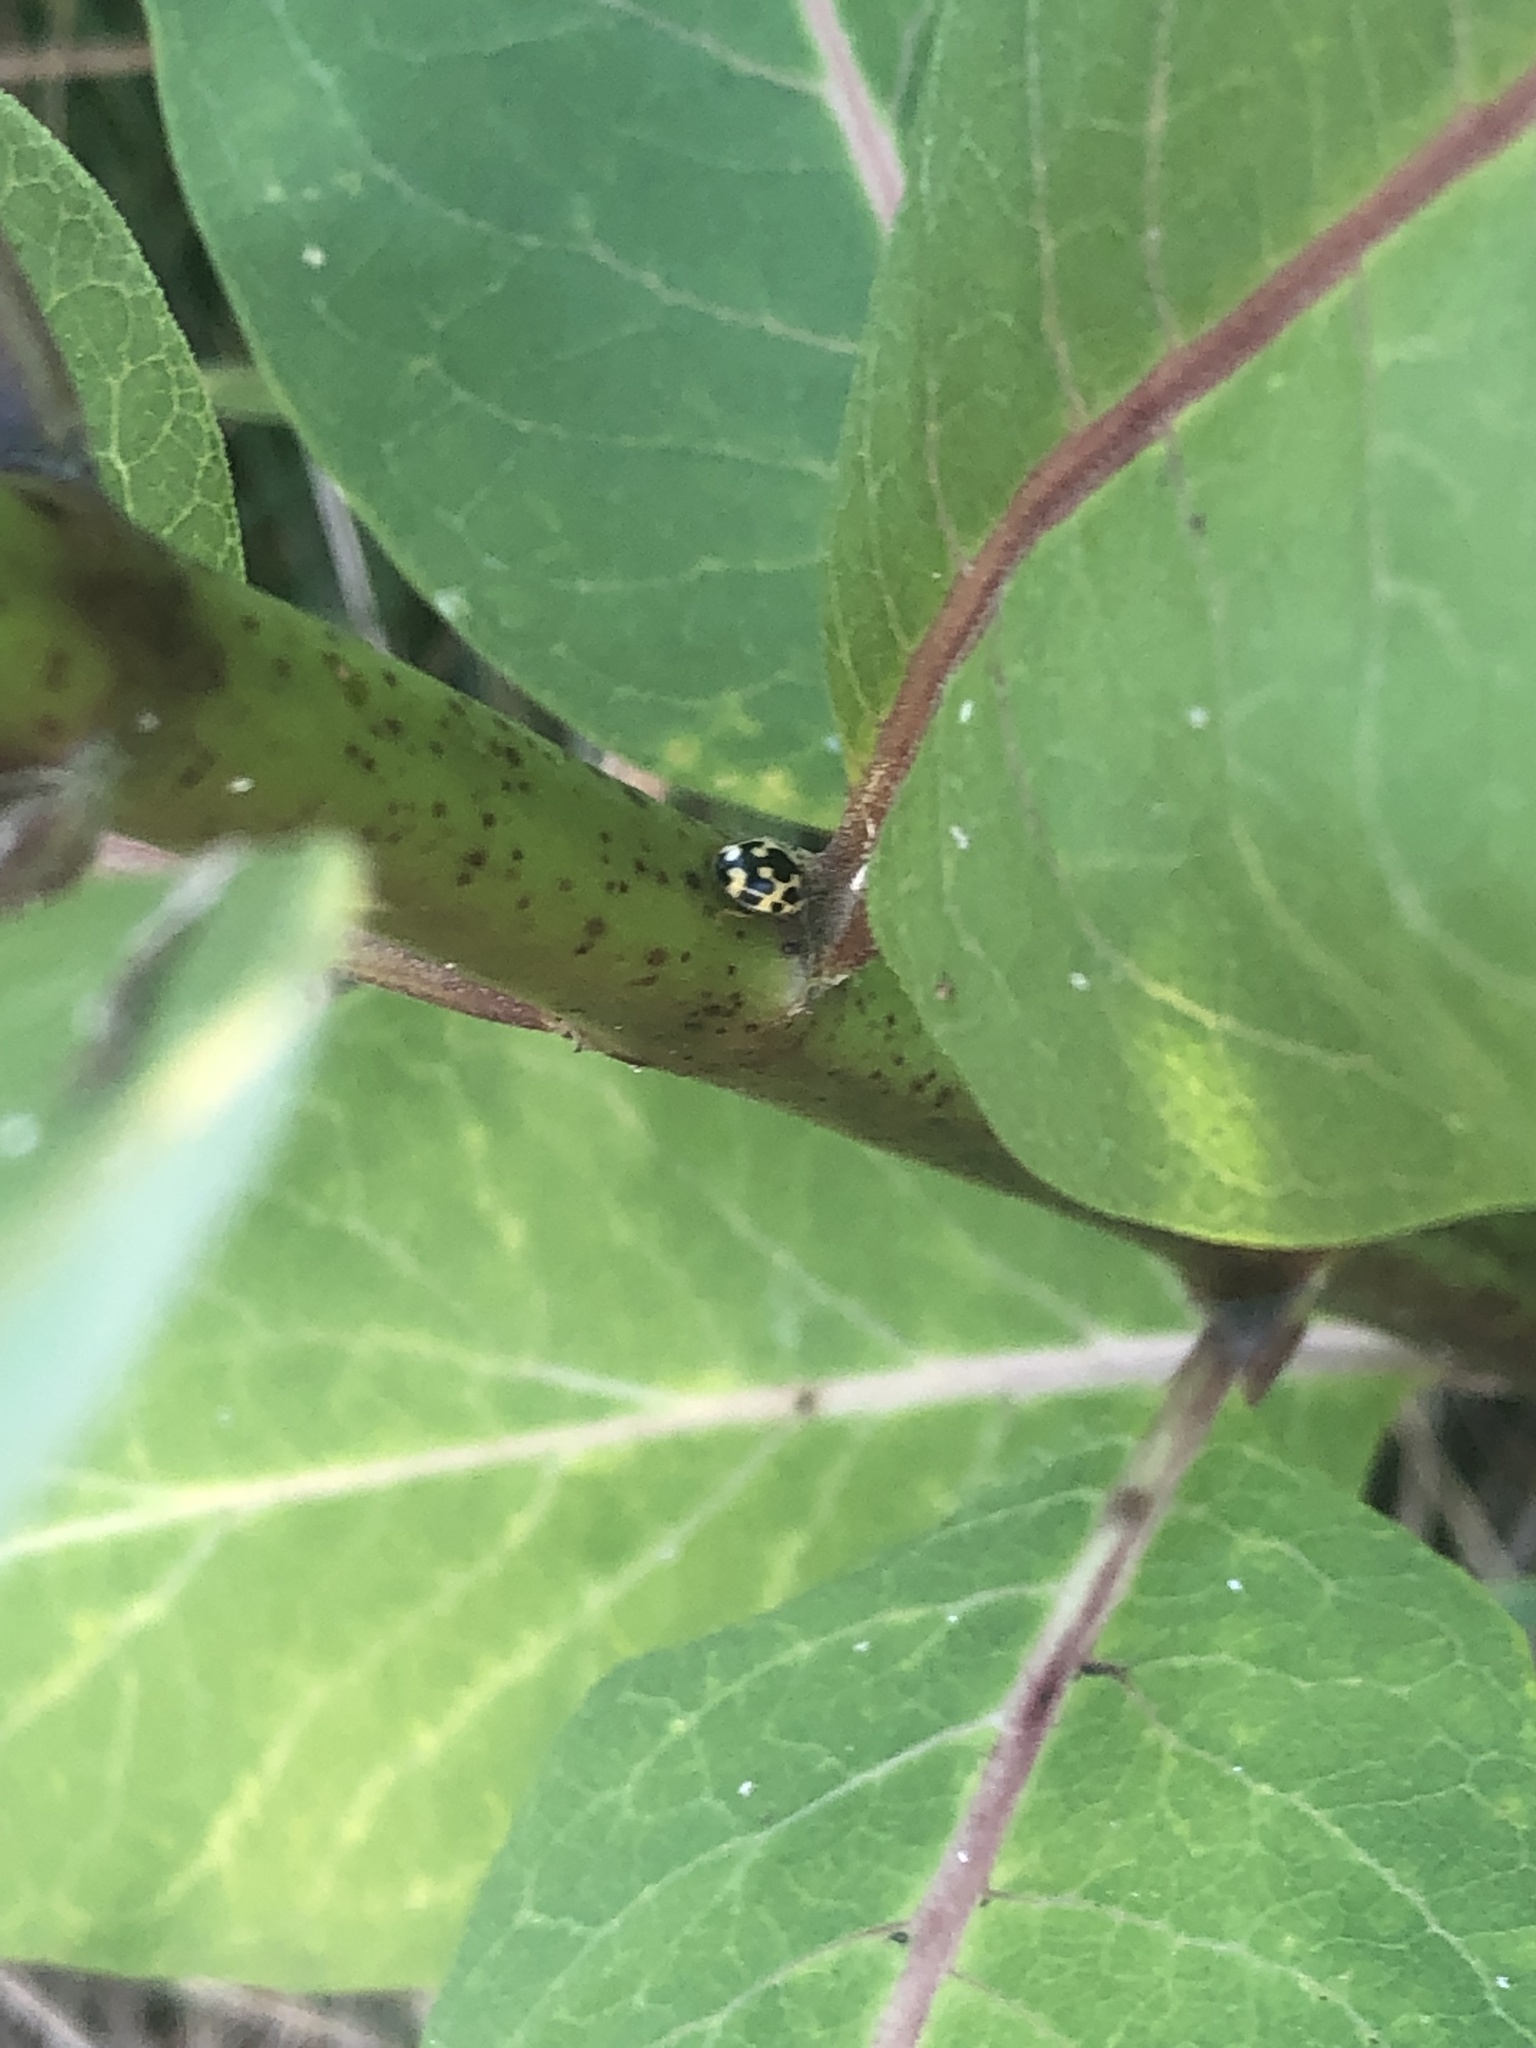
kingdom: Animalia
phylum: Arthropoda
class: Insecta
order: Coleoptera
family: Coccinellidae
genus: Propylaea
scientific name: Propylaea quatuordecimpunctata
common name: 14-spotted ladybird beetle
